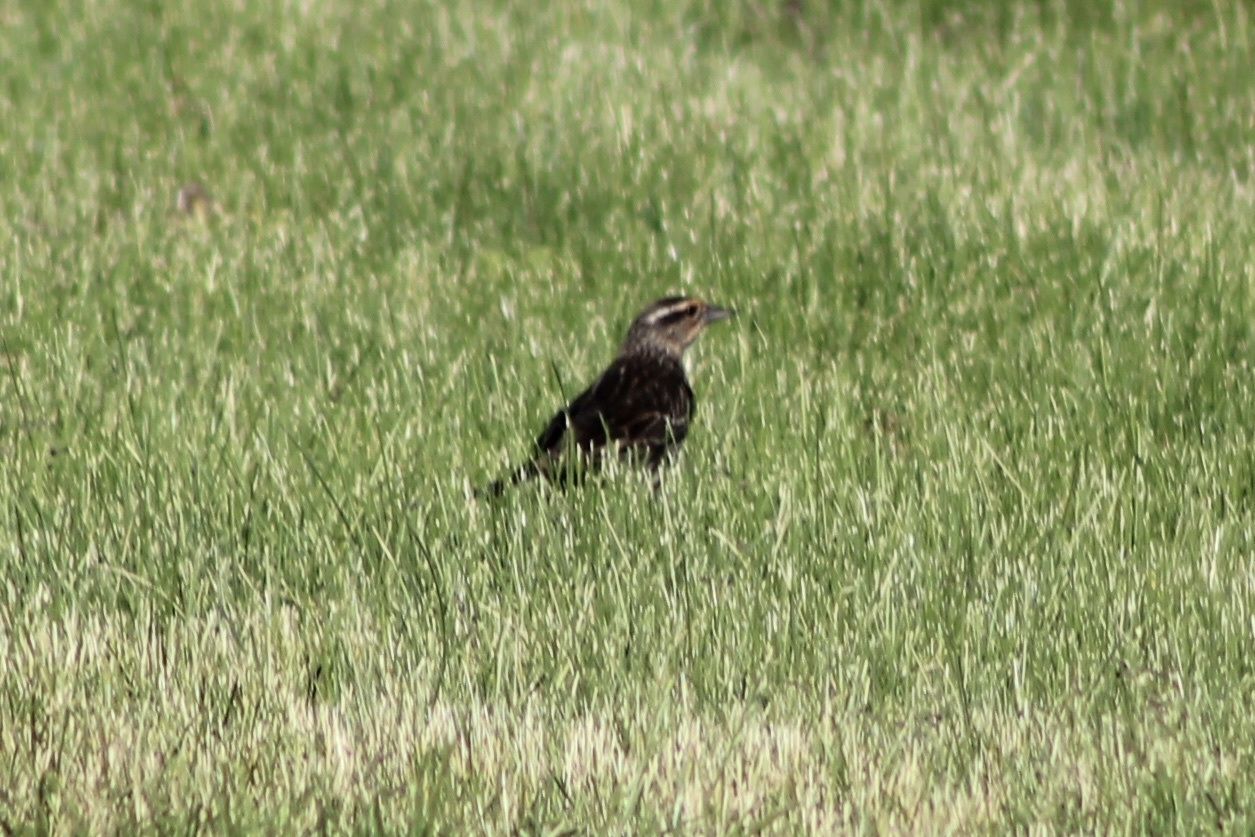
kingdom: Animalia
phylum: Chordata
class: Aves
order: Passeriformes
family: Icteridae
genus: Agelaius
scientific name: Agelaius phoeniceus
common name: Red-winged blackbird
